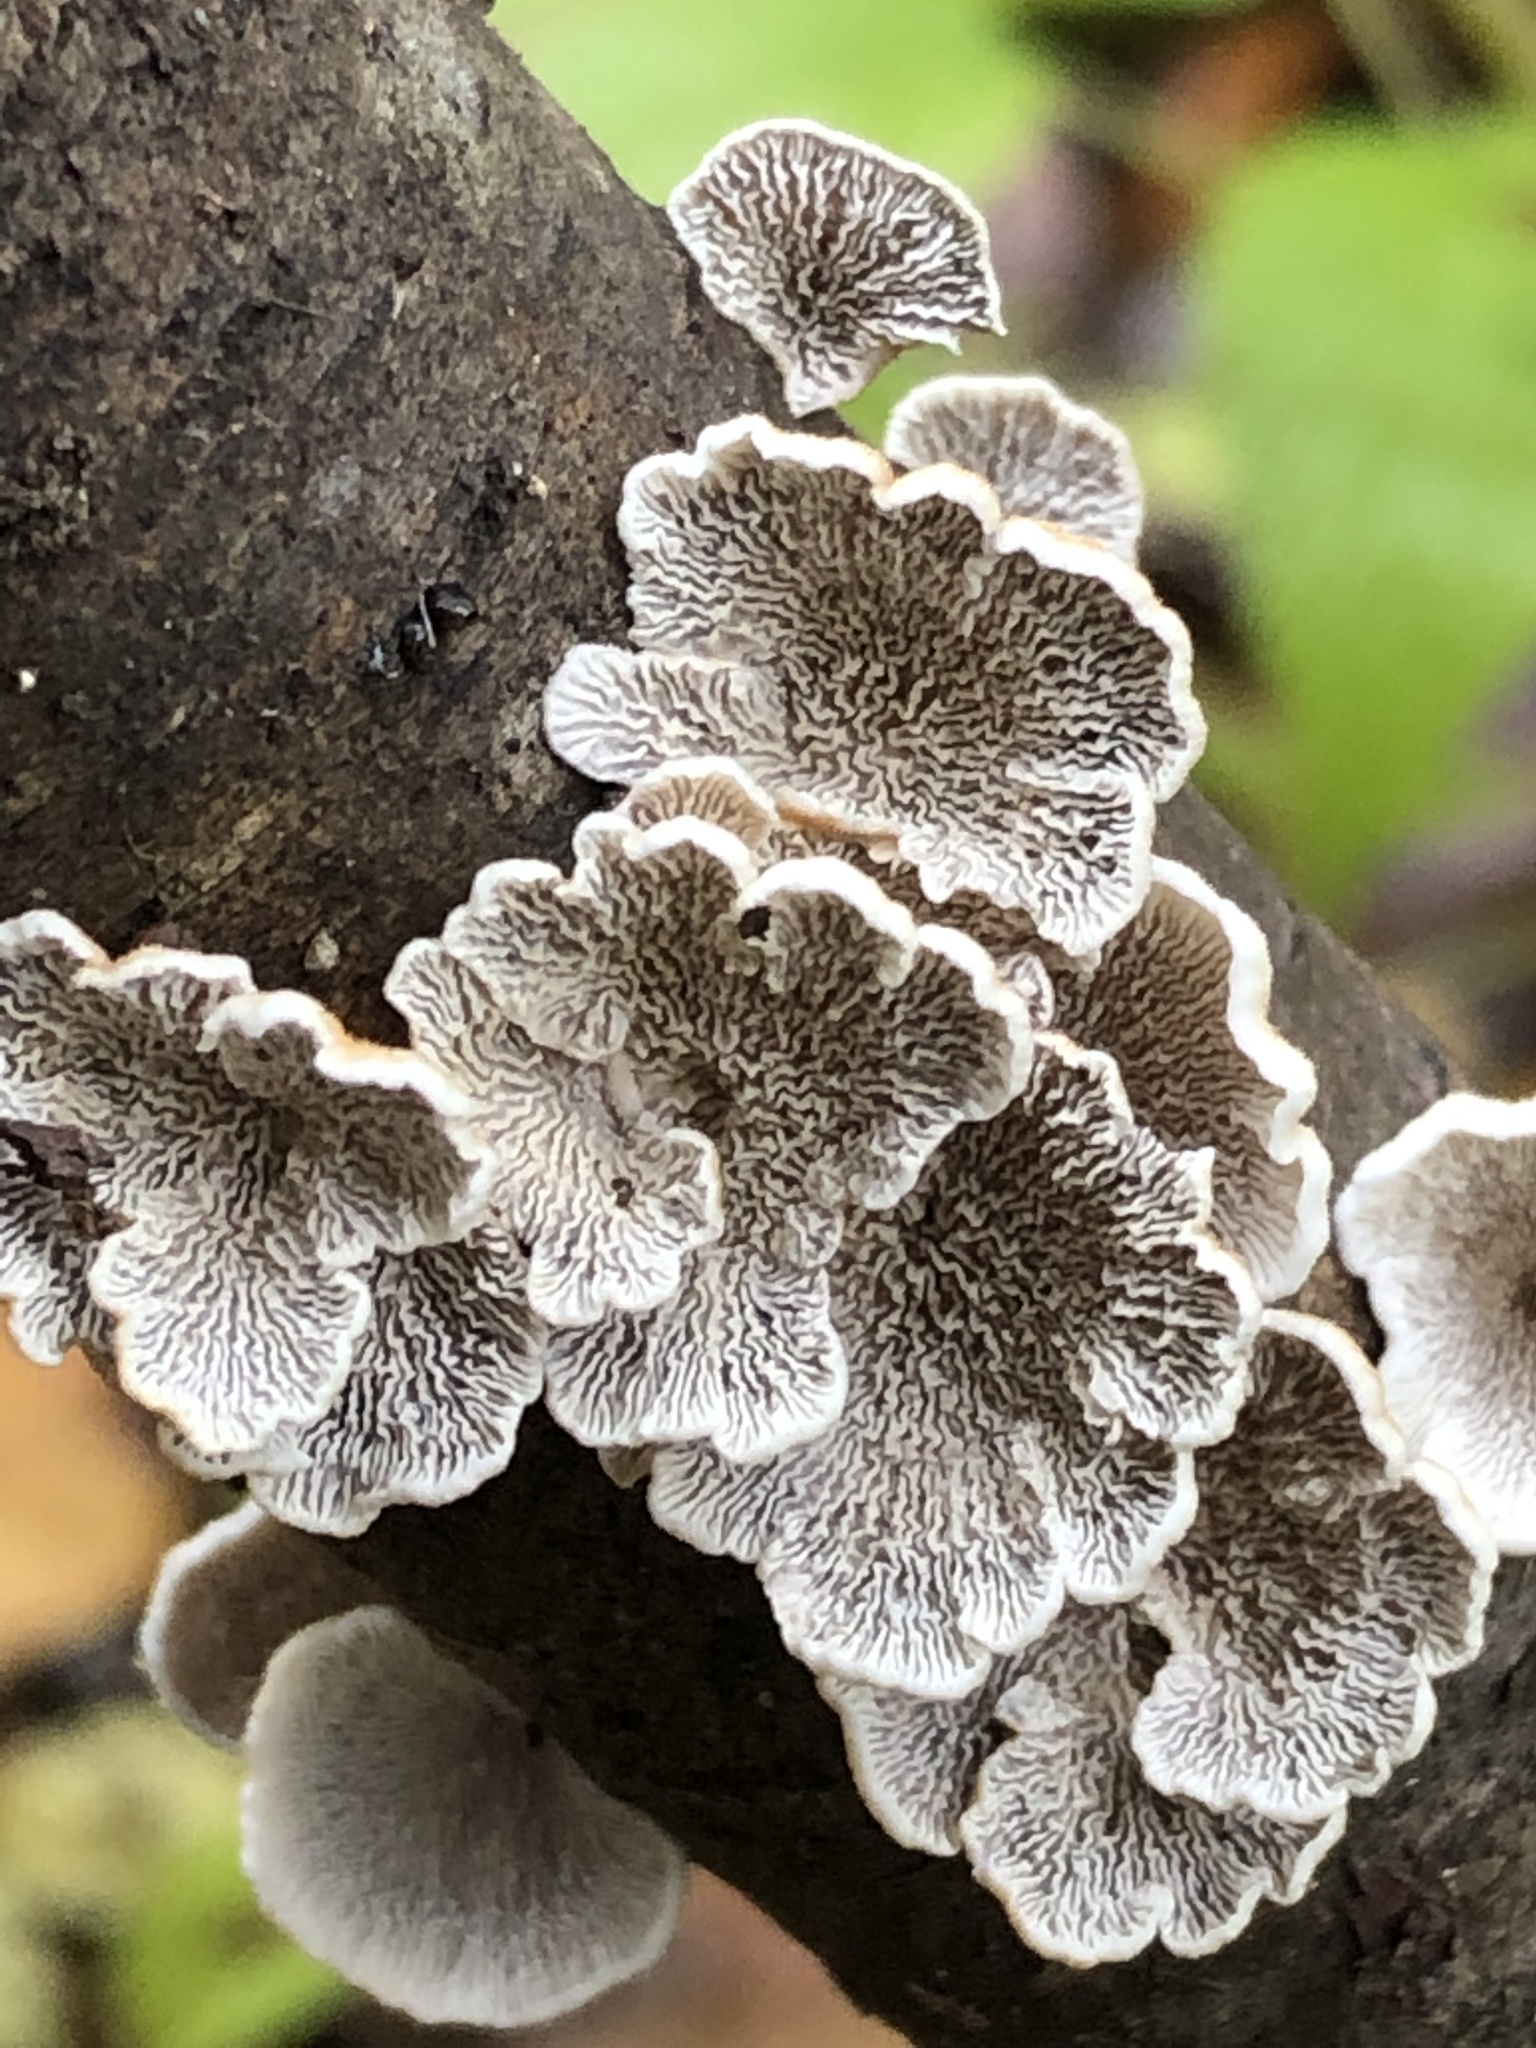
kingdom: Fungi
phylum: Basidiomycota
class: Agaricomycetes
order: Amylocorticiales
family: Amylocorticiaceae
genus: Plicaturopsis
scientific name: Plicaturopsis crispa
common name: Crimped gill
